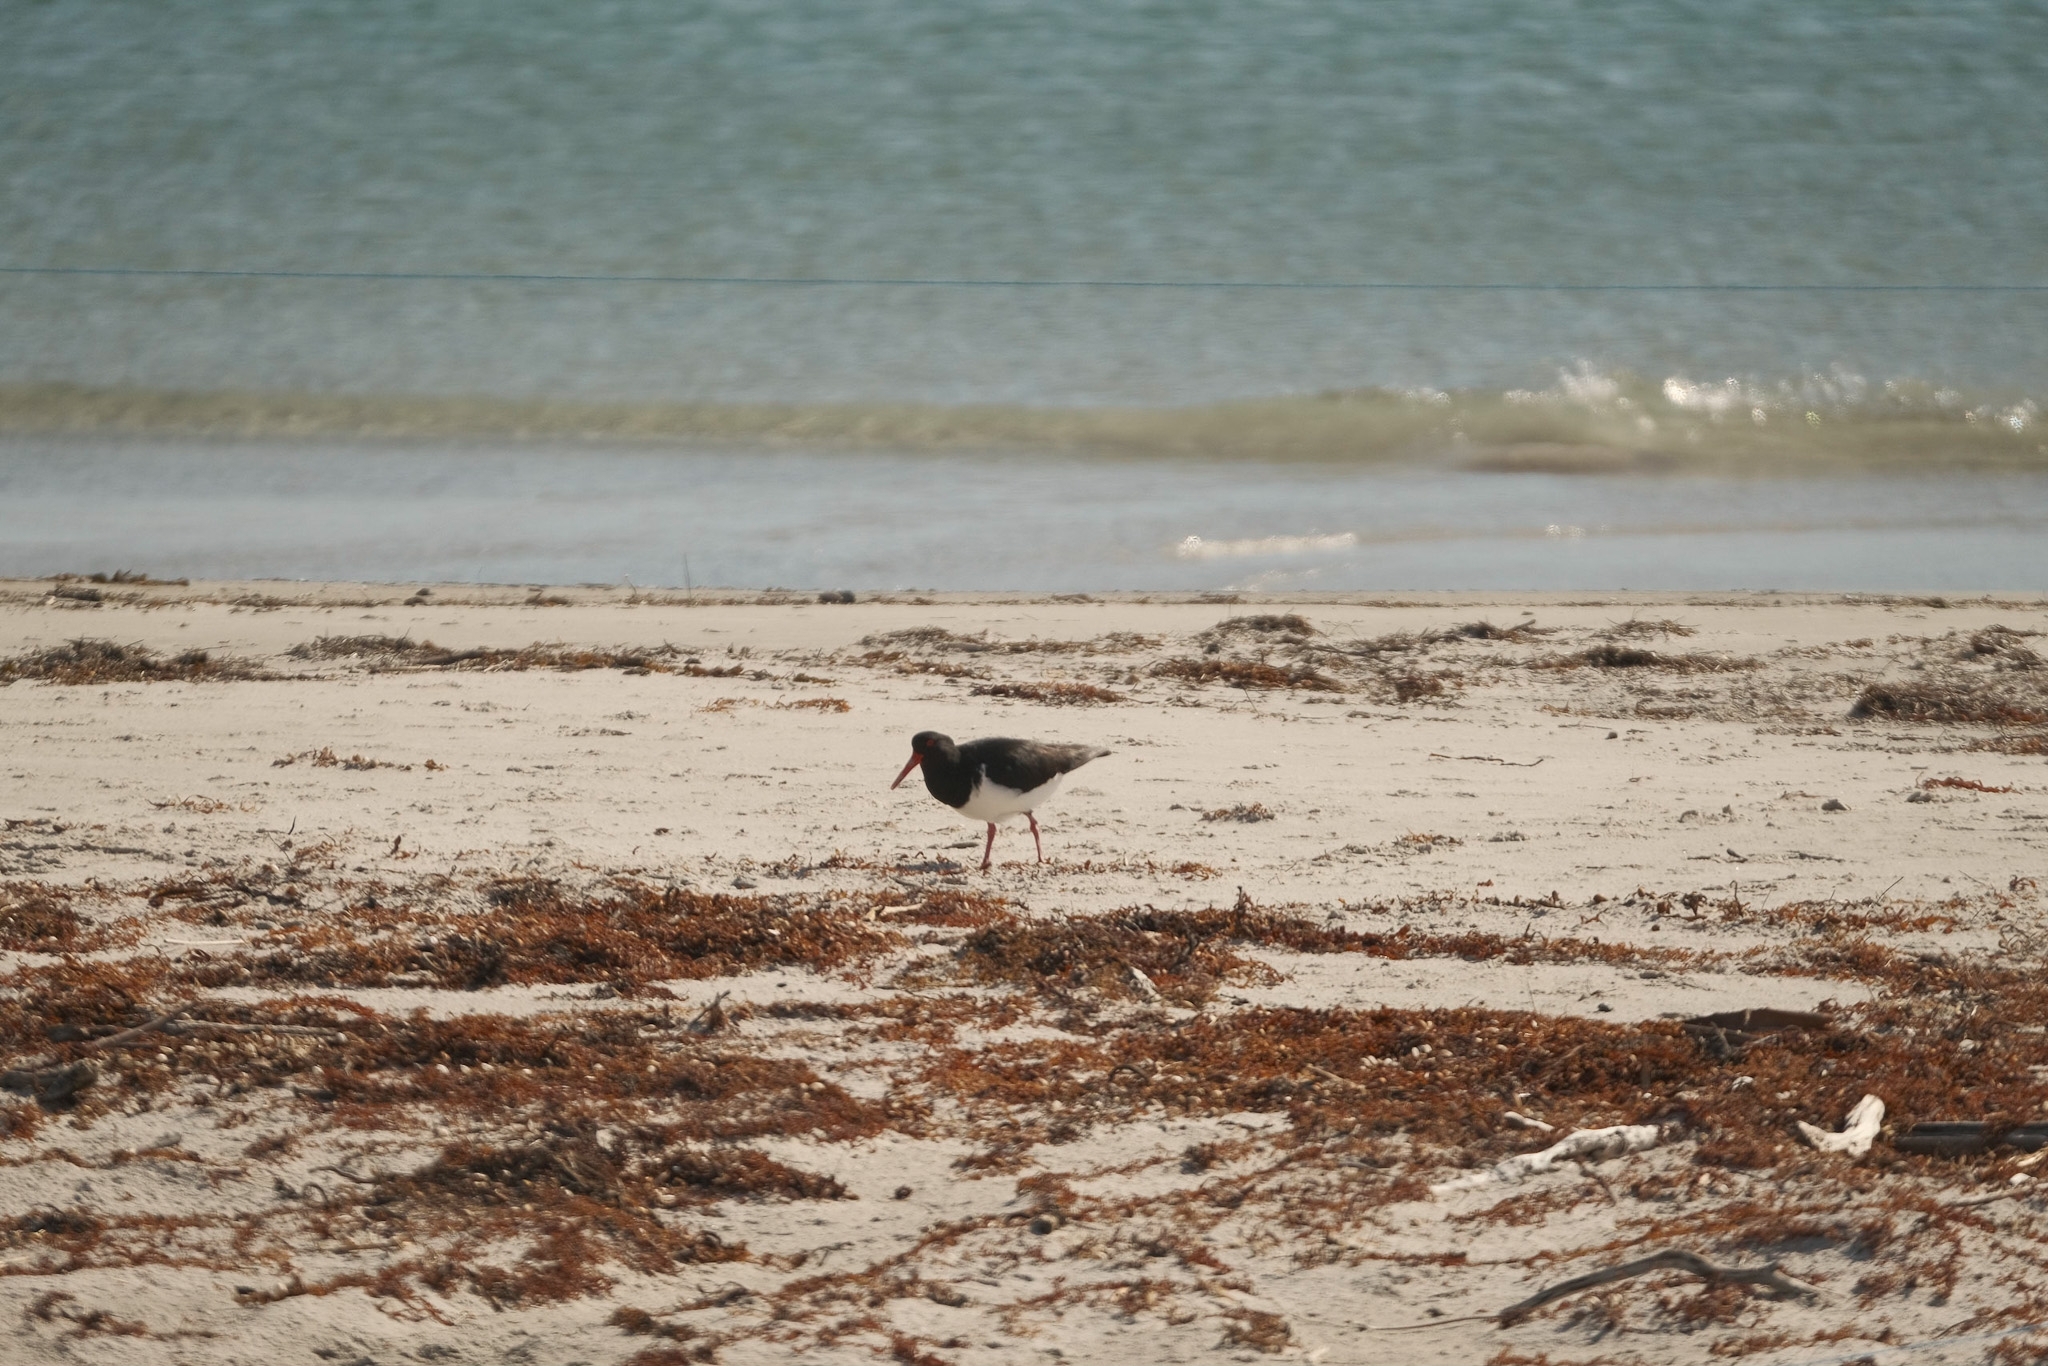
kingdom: Animalia
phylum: Chordata
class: Aves
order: Charadriiformes
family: Haematopodidae
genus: Haematopus
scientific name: Haematopus longirostris
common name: Pied oystercatcher
